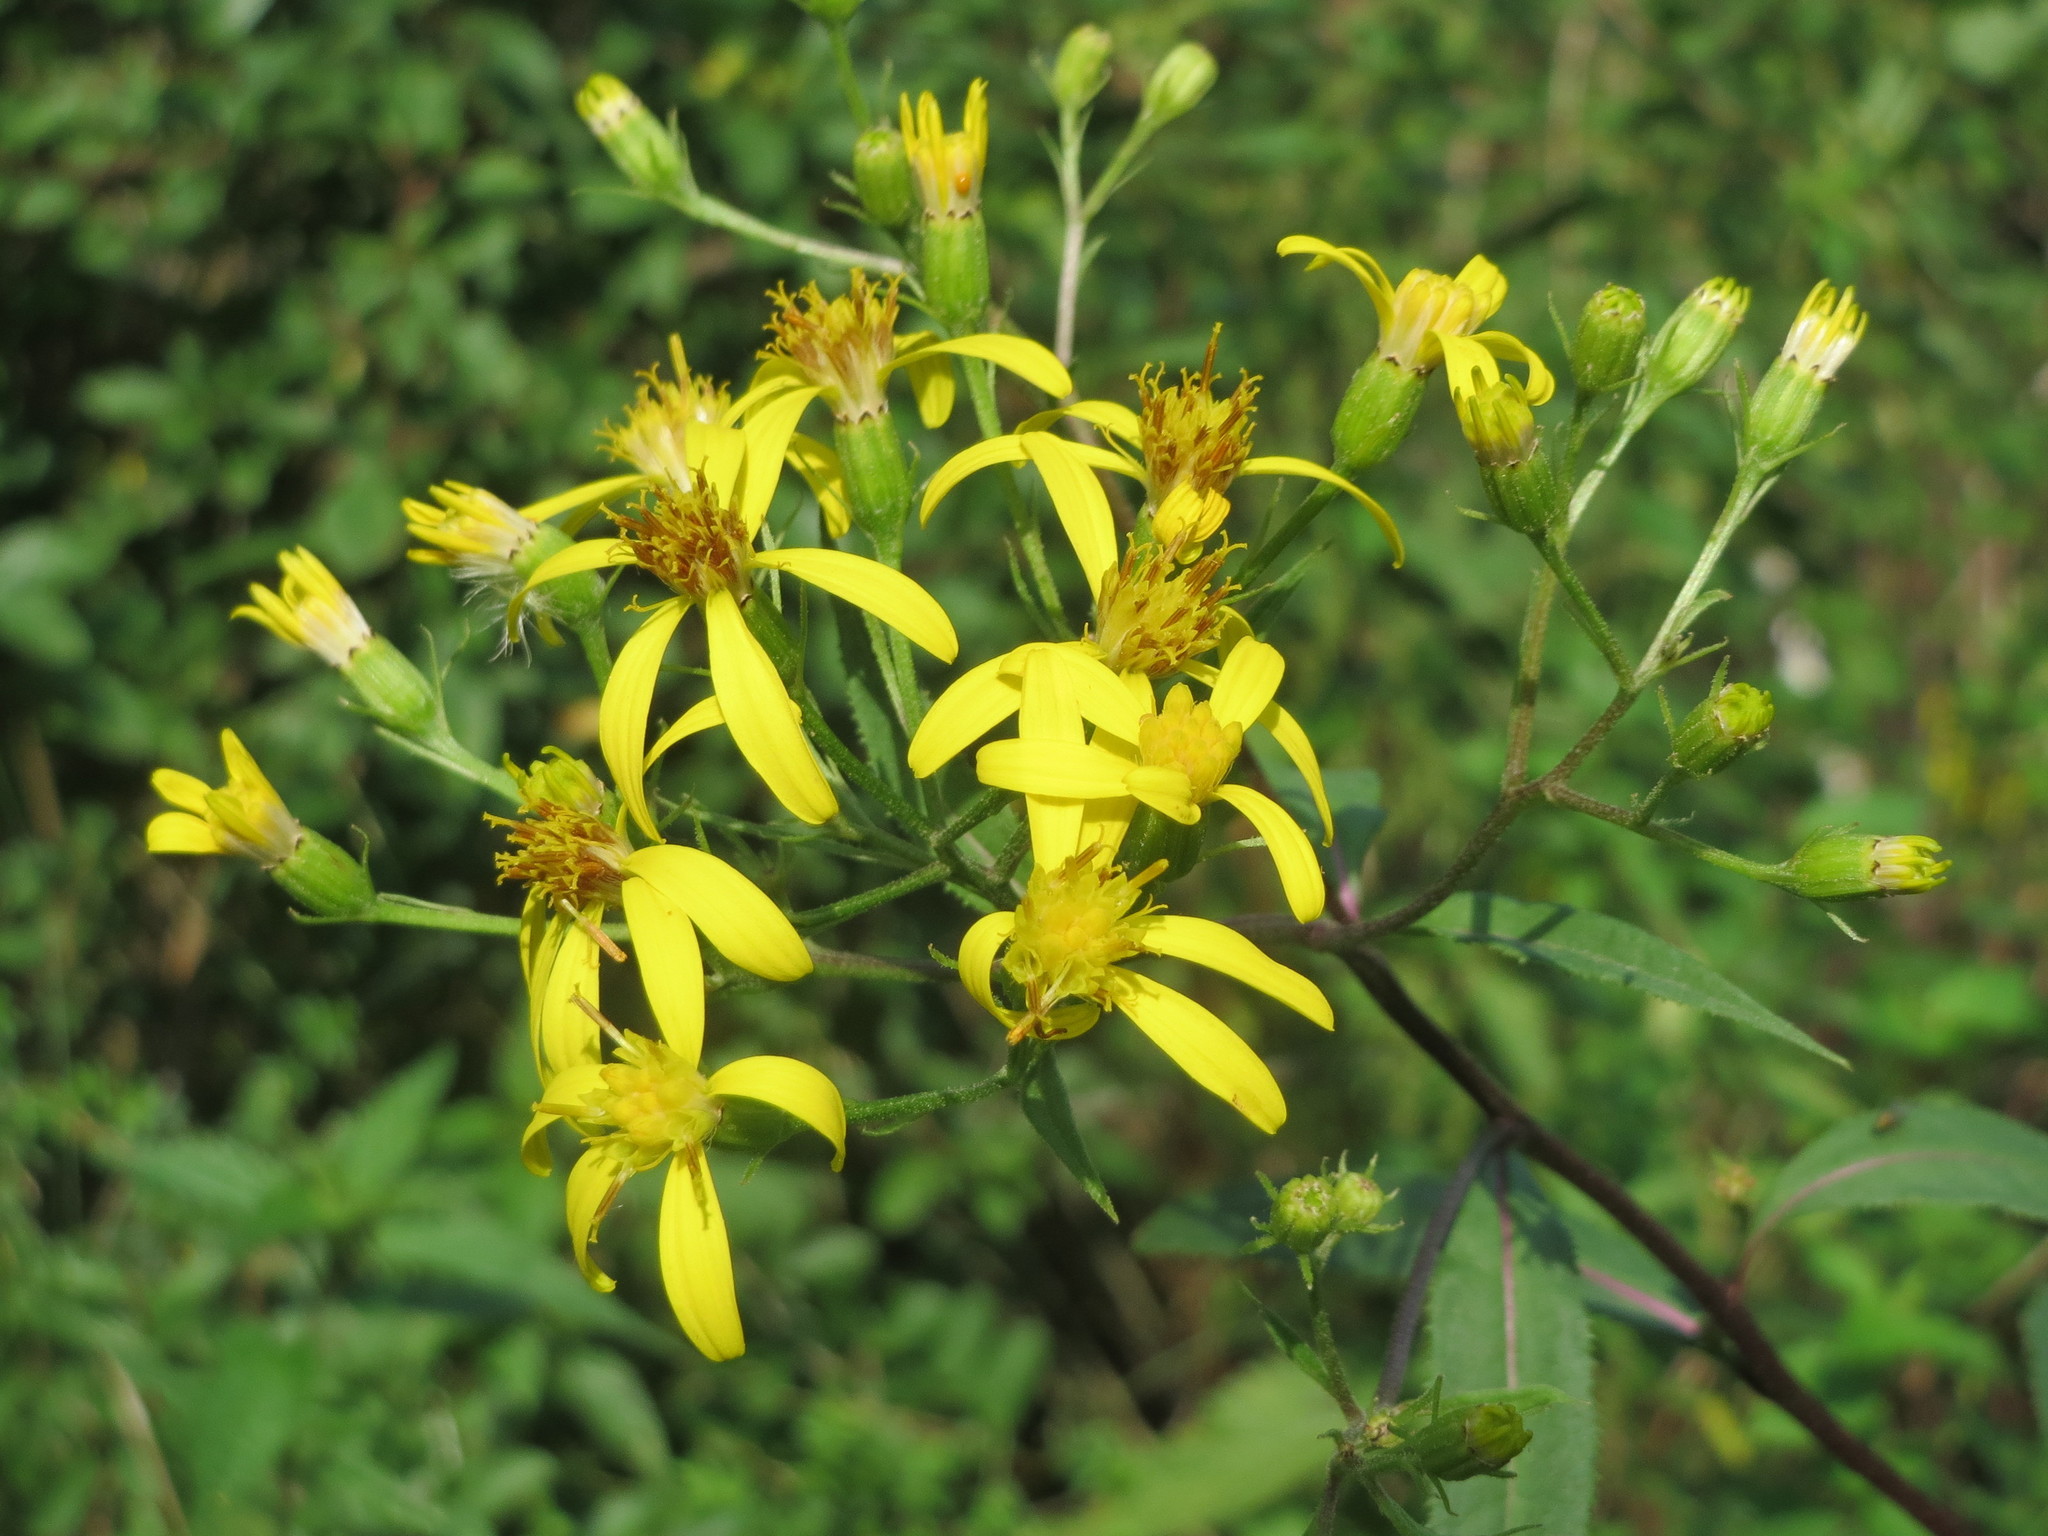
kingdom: Plantae
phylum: Tracheophyta
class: Magnoliopsida
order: Asterales
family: Asteraceae
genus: Senecio
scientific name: Senecio ovatus
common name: Wood ragwort
